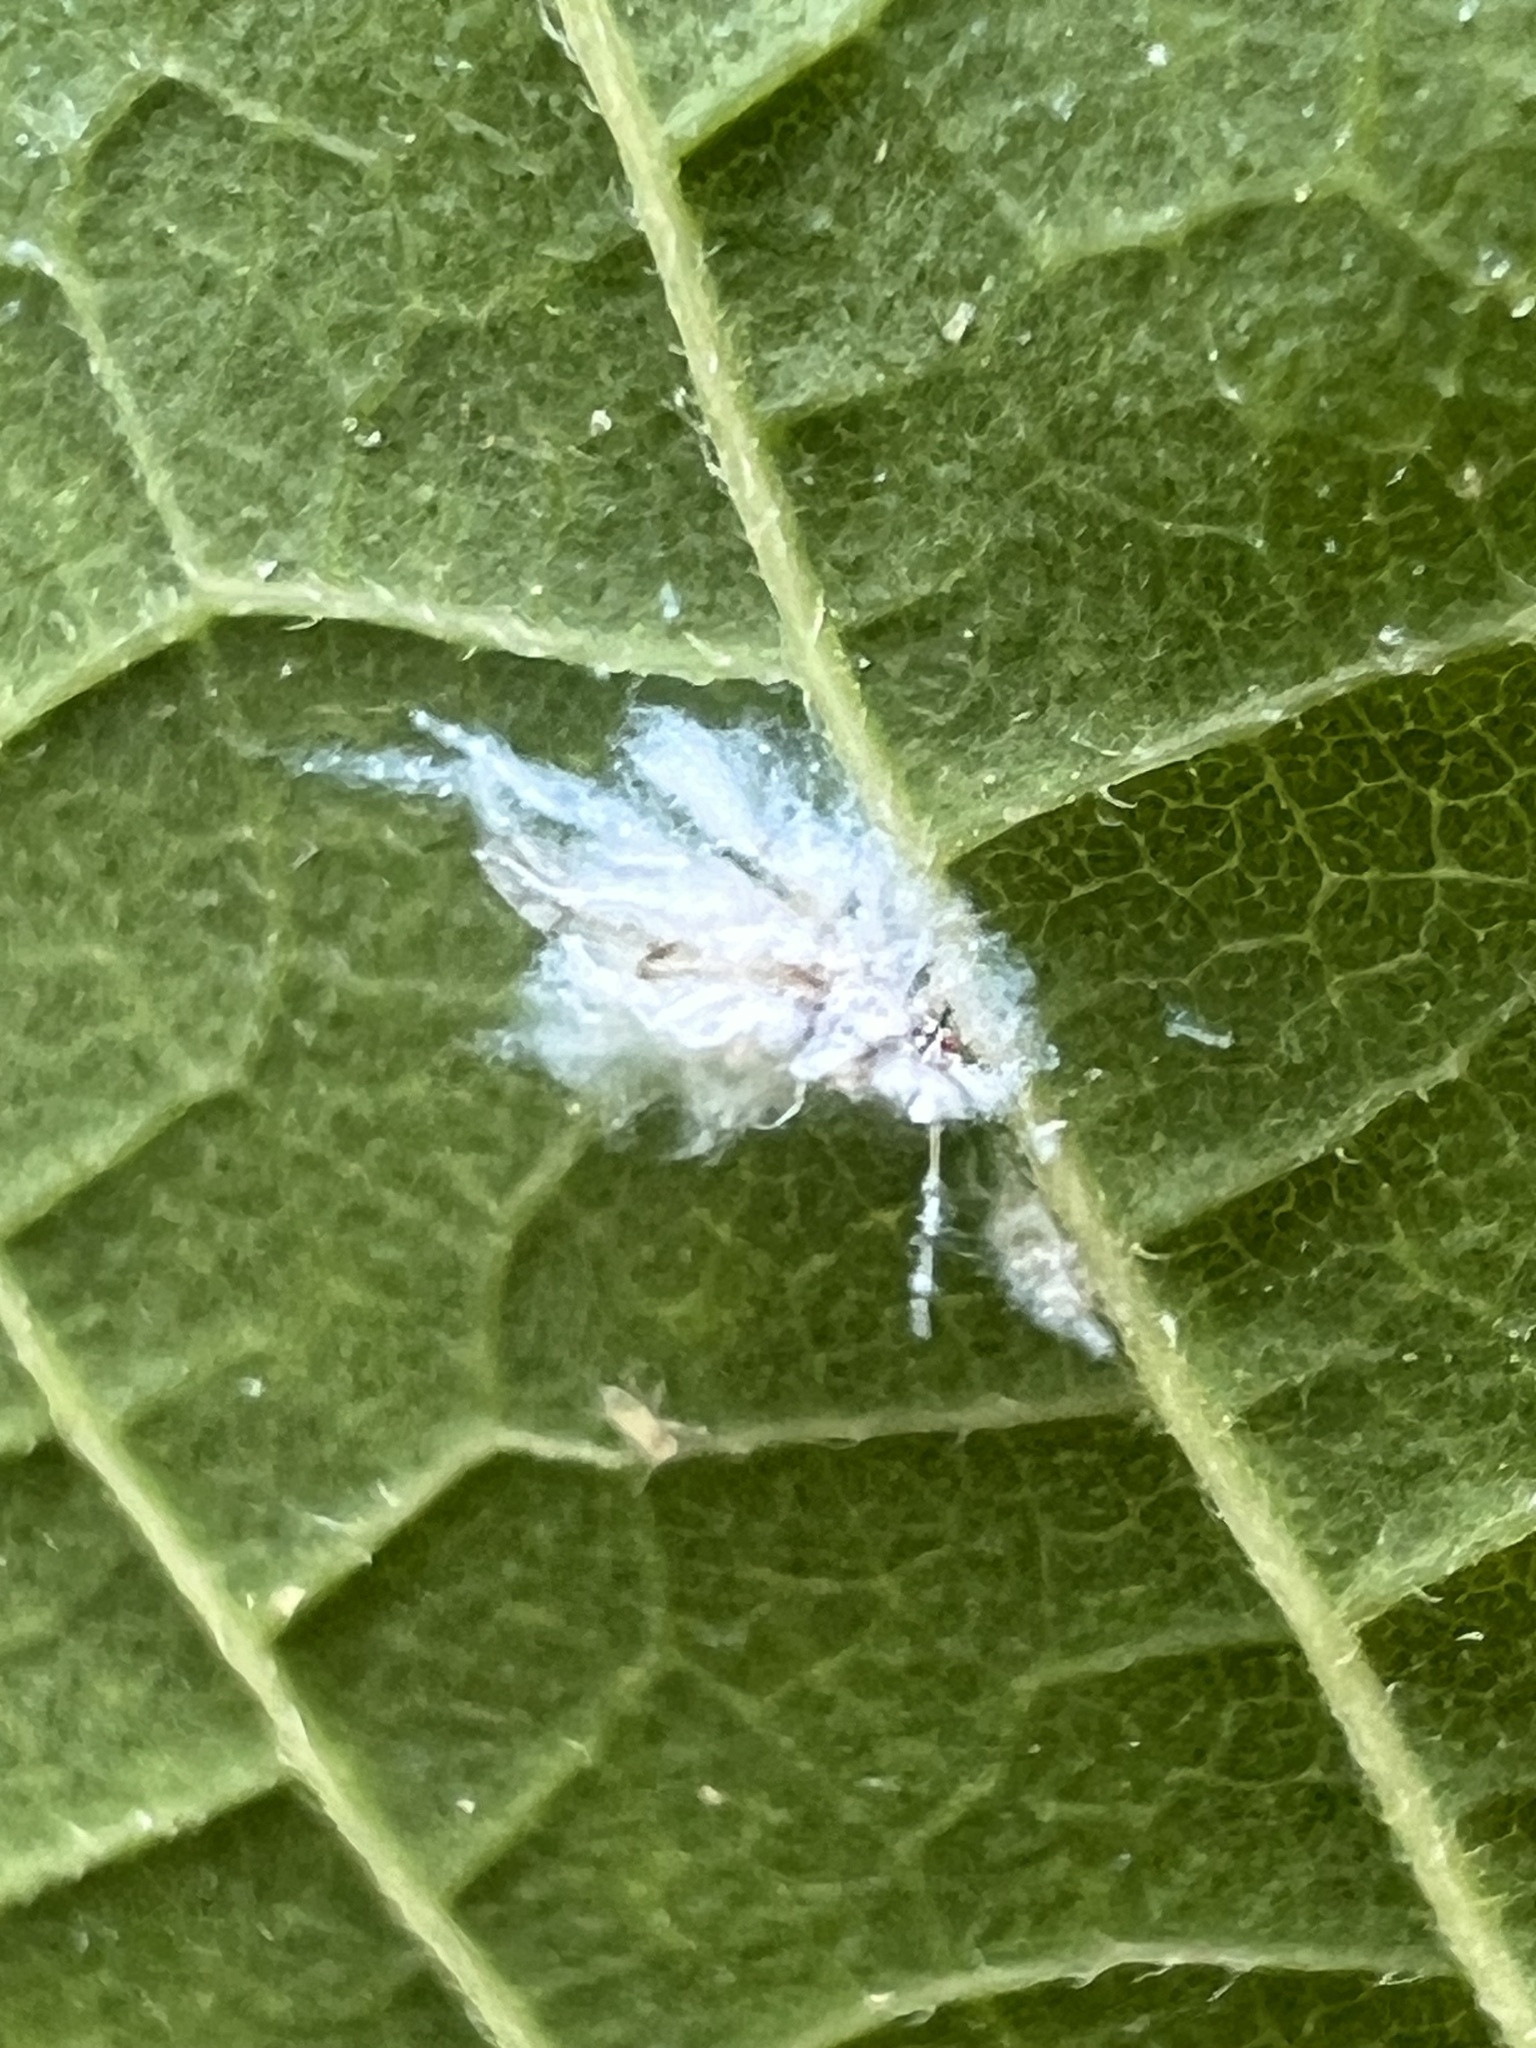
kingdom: Animalia
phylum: Arthropoda
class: Insecta
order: Hemiptera
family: Aphididae
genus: Shivaphis
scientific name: Shivaphis celti
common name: Asian wooly hackberry aphid
